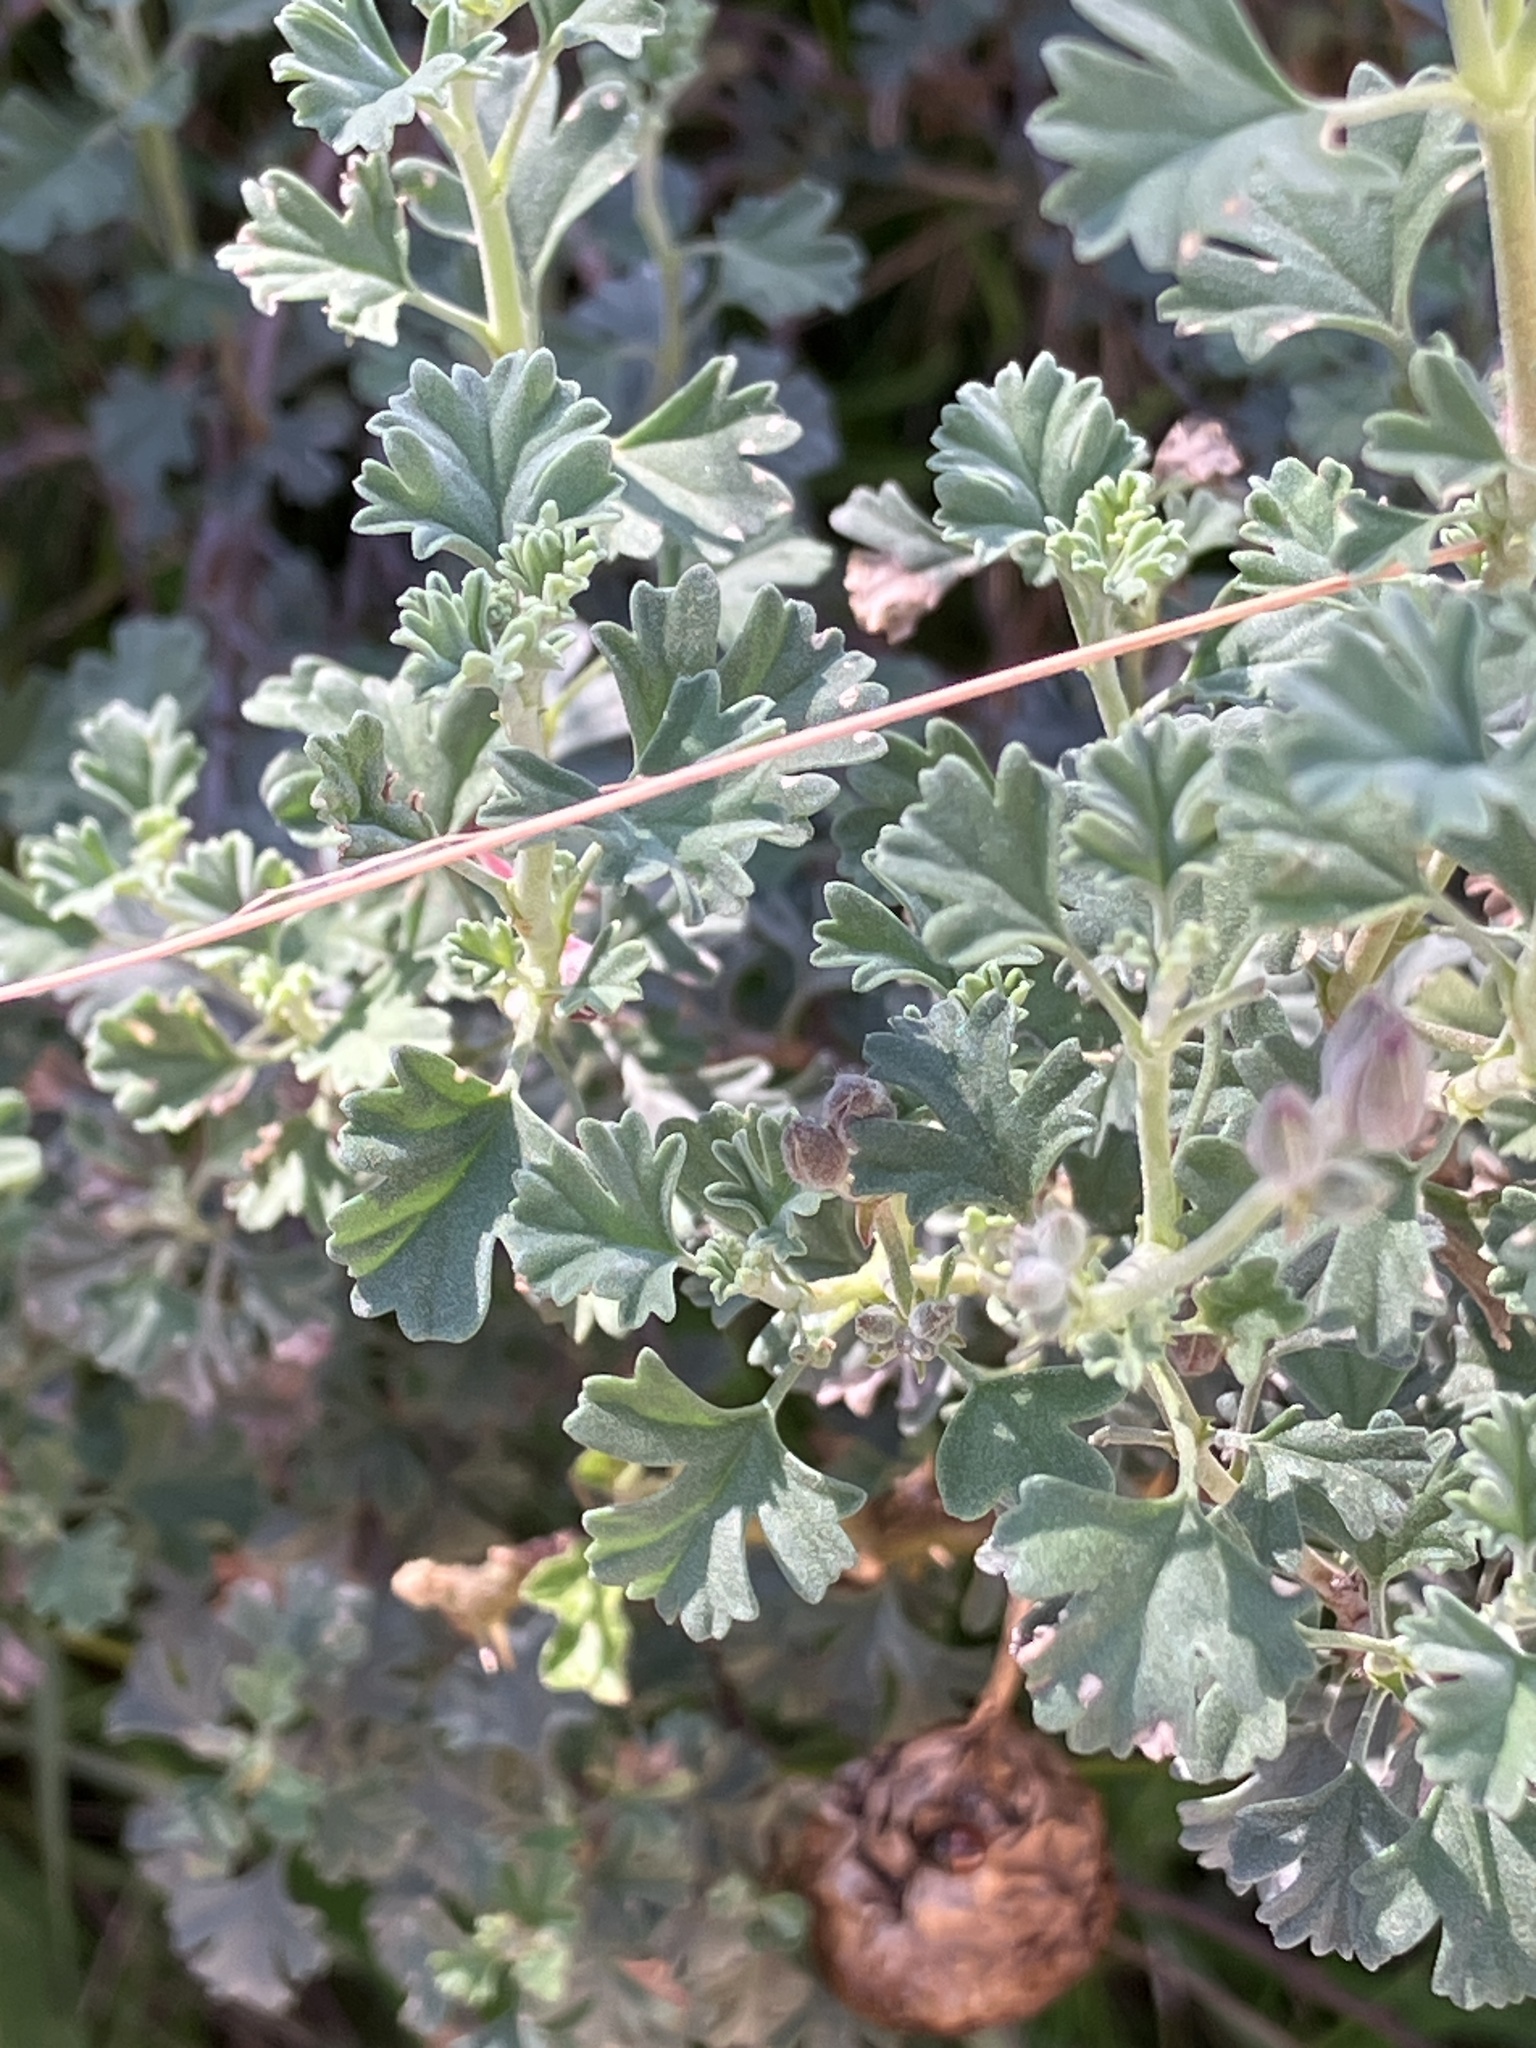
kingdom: Plantae
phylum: Tracheophyta
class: Magnoliopsida
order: Geraniales
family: Geraniaceae
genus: Pelargonium
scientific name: Pelargonium exstipulatum
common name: Soft-leaf trifid pelargonium
